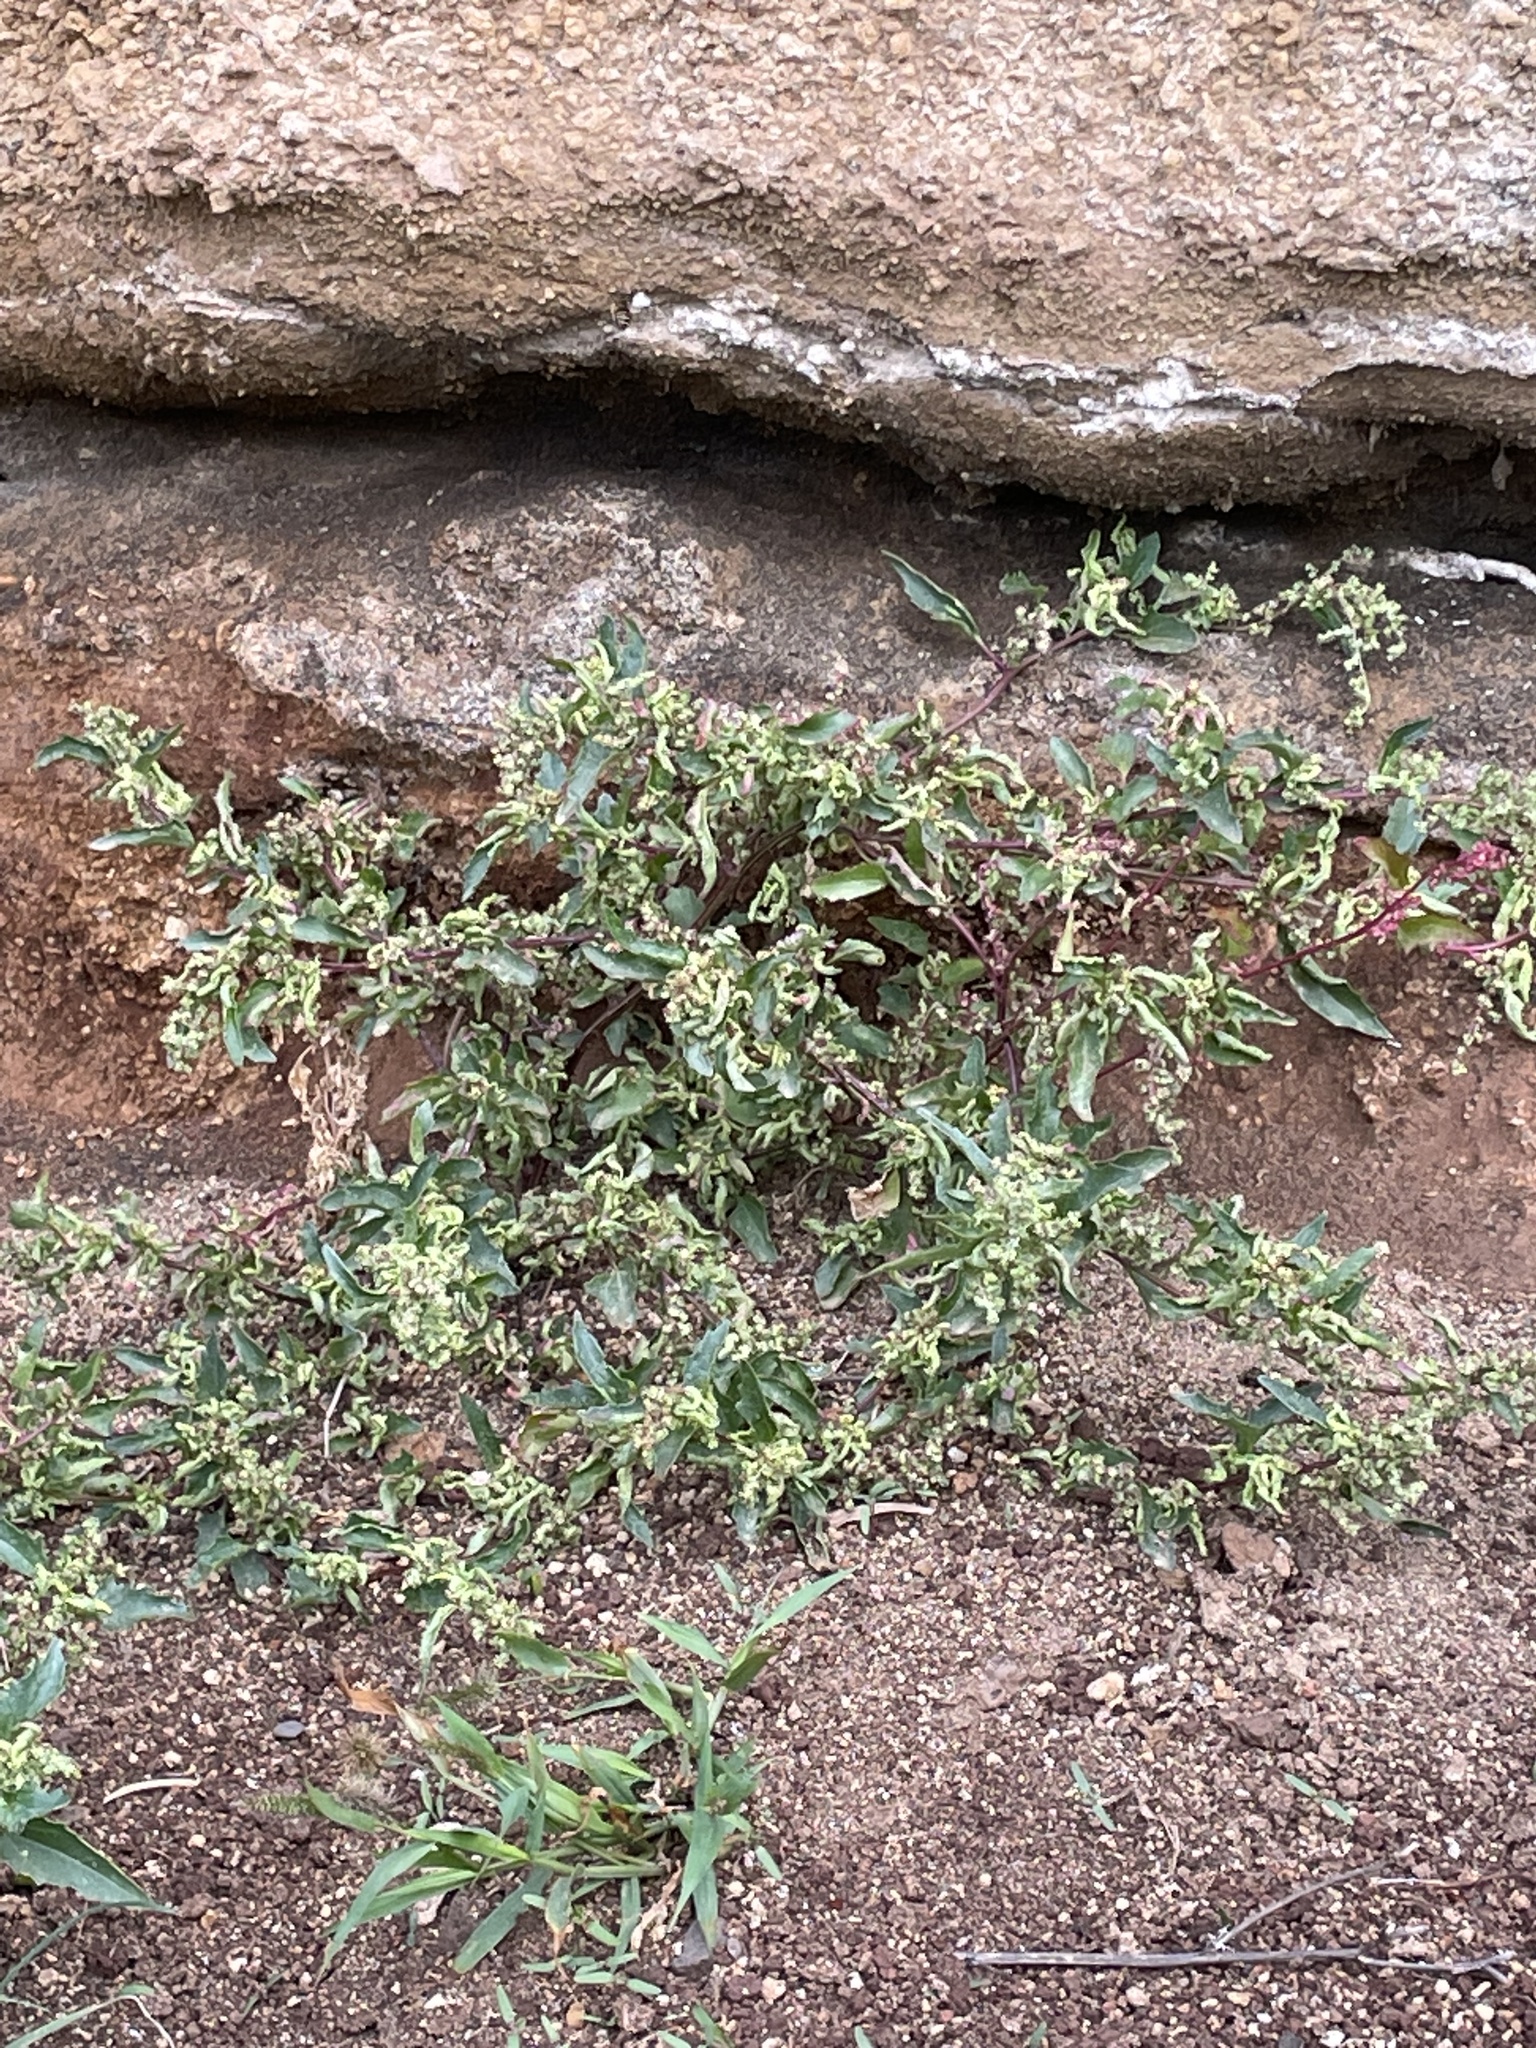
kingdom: Plantae
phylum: Tracheophyta
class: Magnoliopsida
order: Caryophyllales
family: Amaranthaceae
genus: Chenopodiastrum
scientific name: Chenopodiastrum murale
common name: Sowbane
